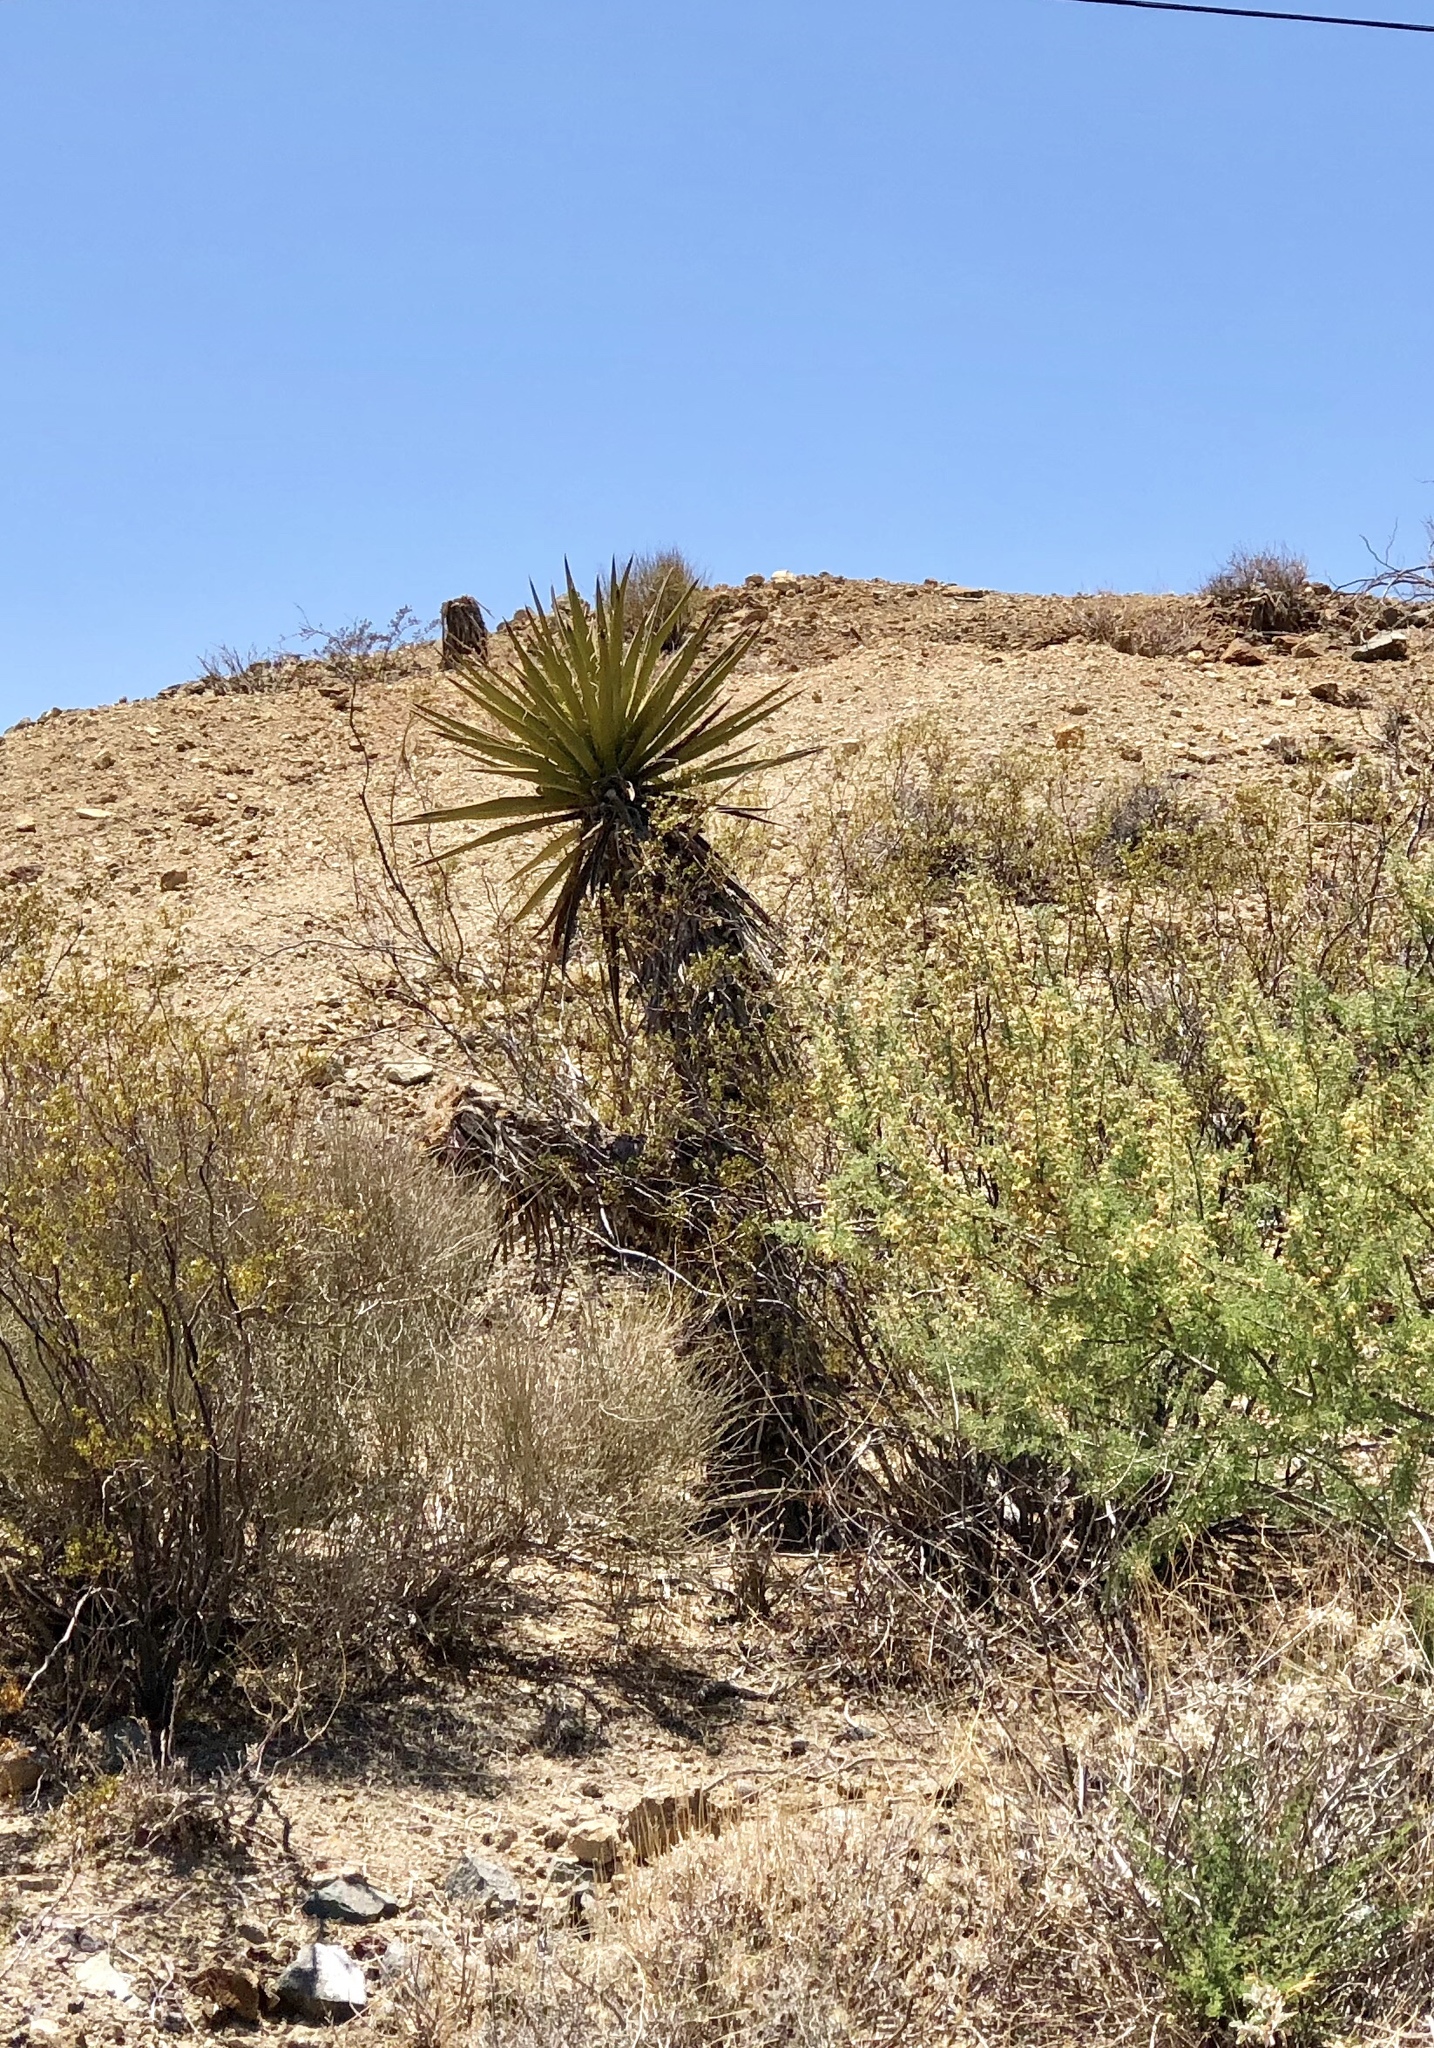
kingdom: Plantae
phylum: Tracheophyta
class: Liliopsida
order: Asparagales
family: Asparagaceae
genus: Yucca
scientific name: Yucca schidigera
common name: Mojave yucca
